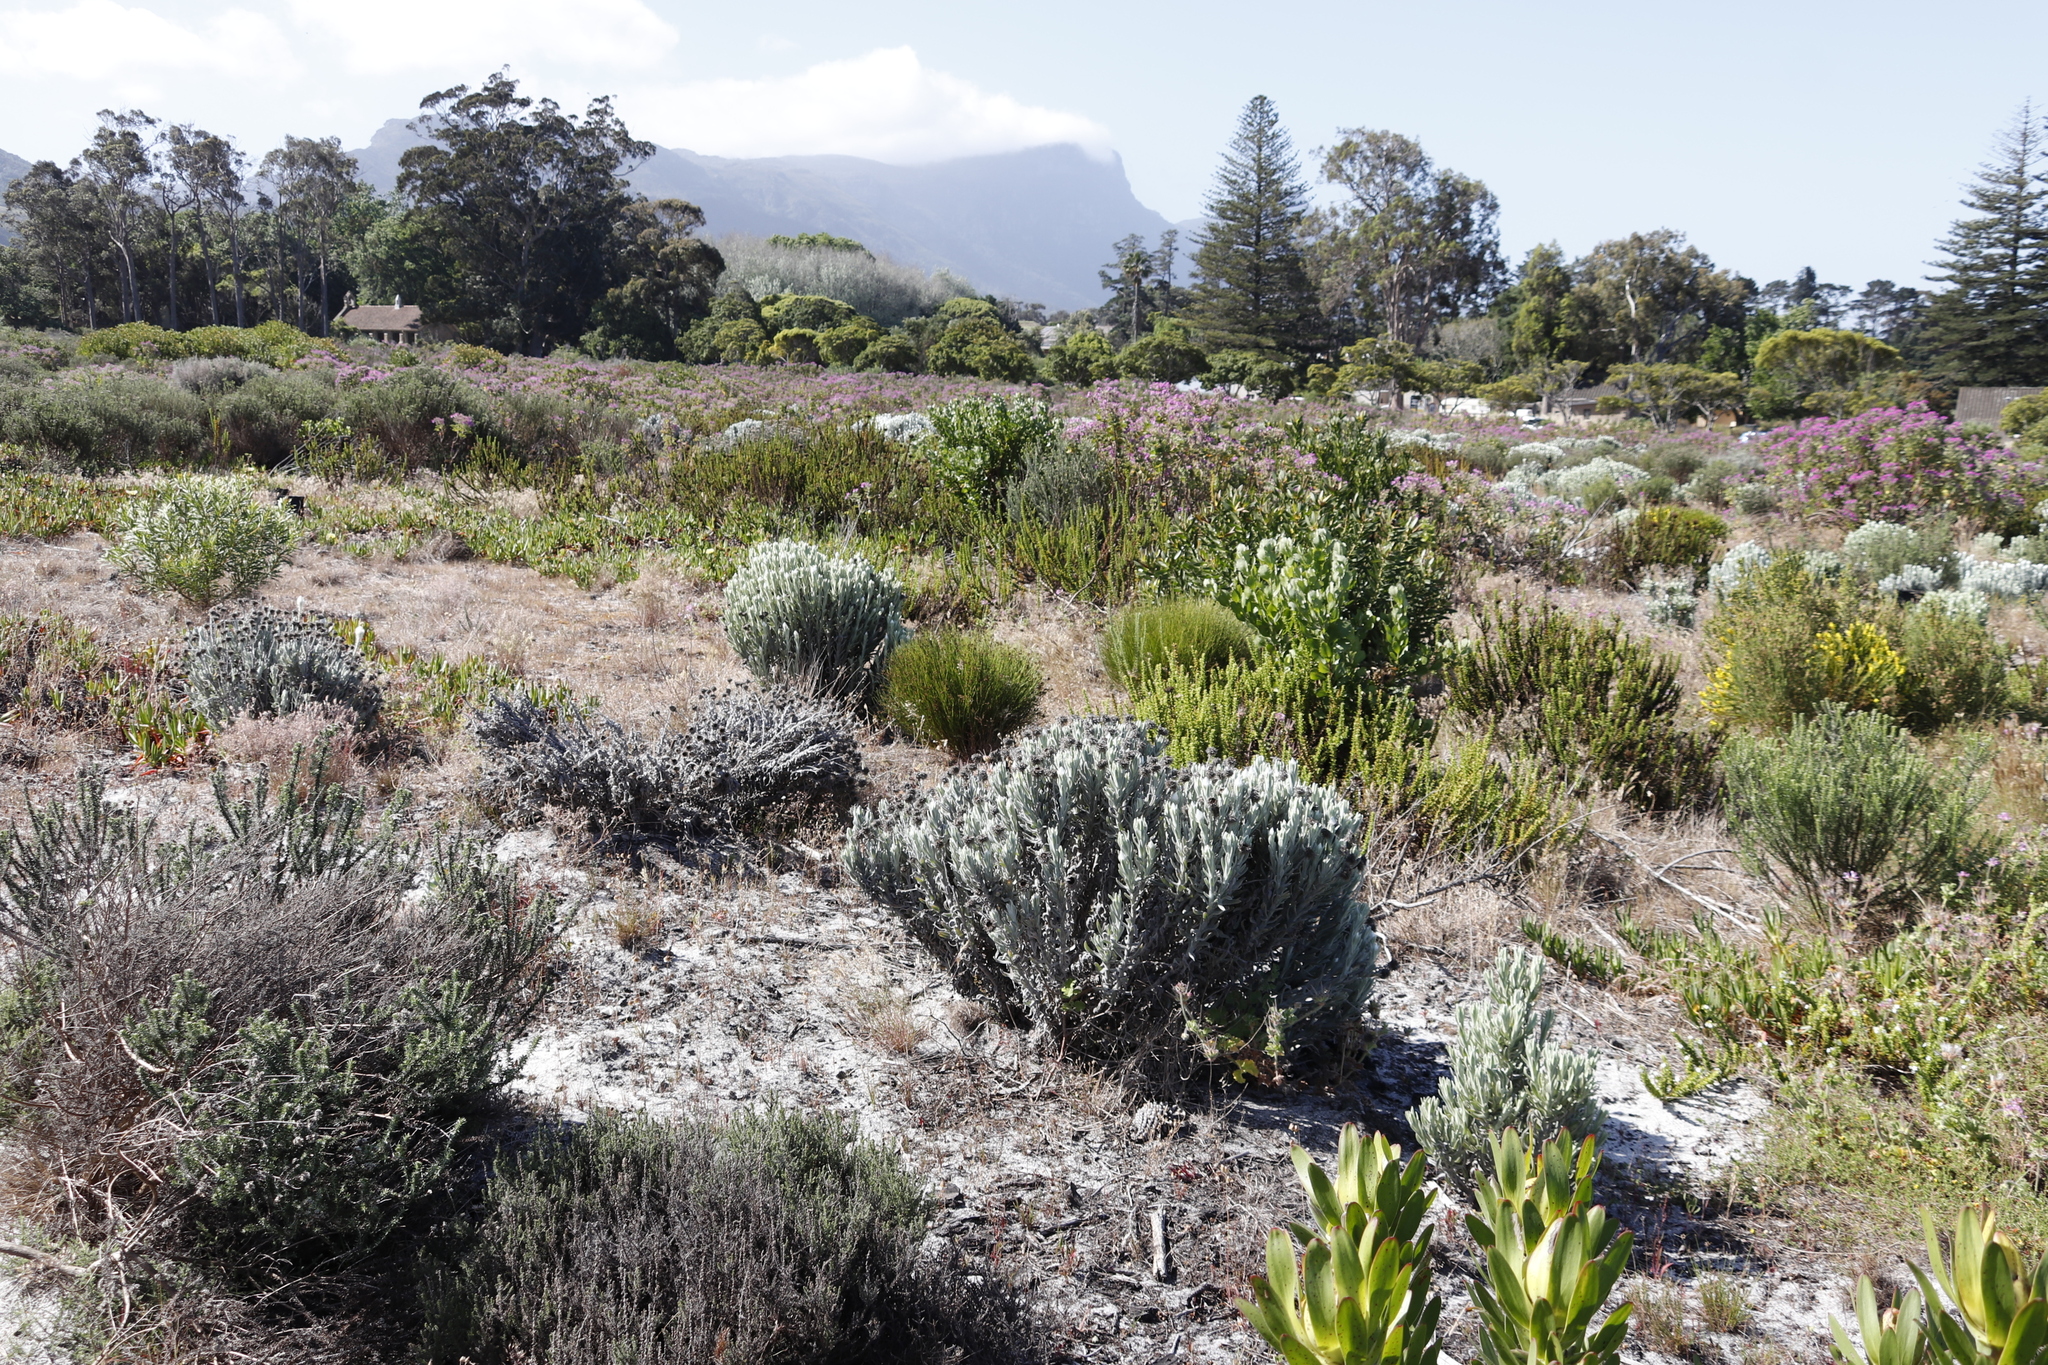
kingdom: Plantae
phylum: Tracheophyta
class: Magnoliopsida
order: Asterales
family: Asteraceae
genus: Syncarpha
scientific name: Syncarpha vestita
